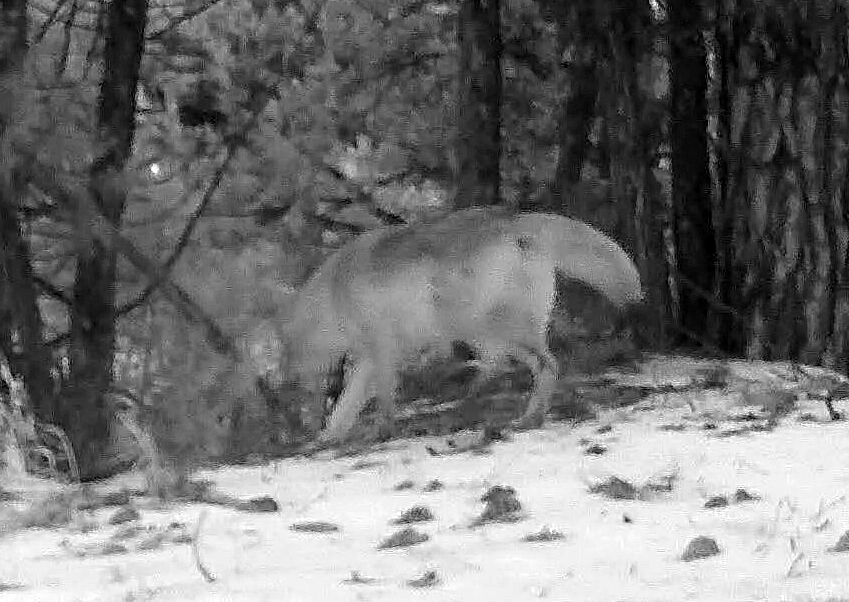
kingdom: Animalia
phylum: Chordata
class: Mammalia
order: Carnivora
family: Canidae
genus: Canis
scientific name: Canis latrans
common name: Coyote
